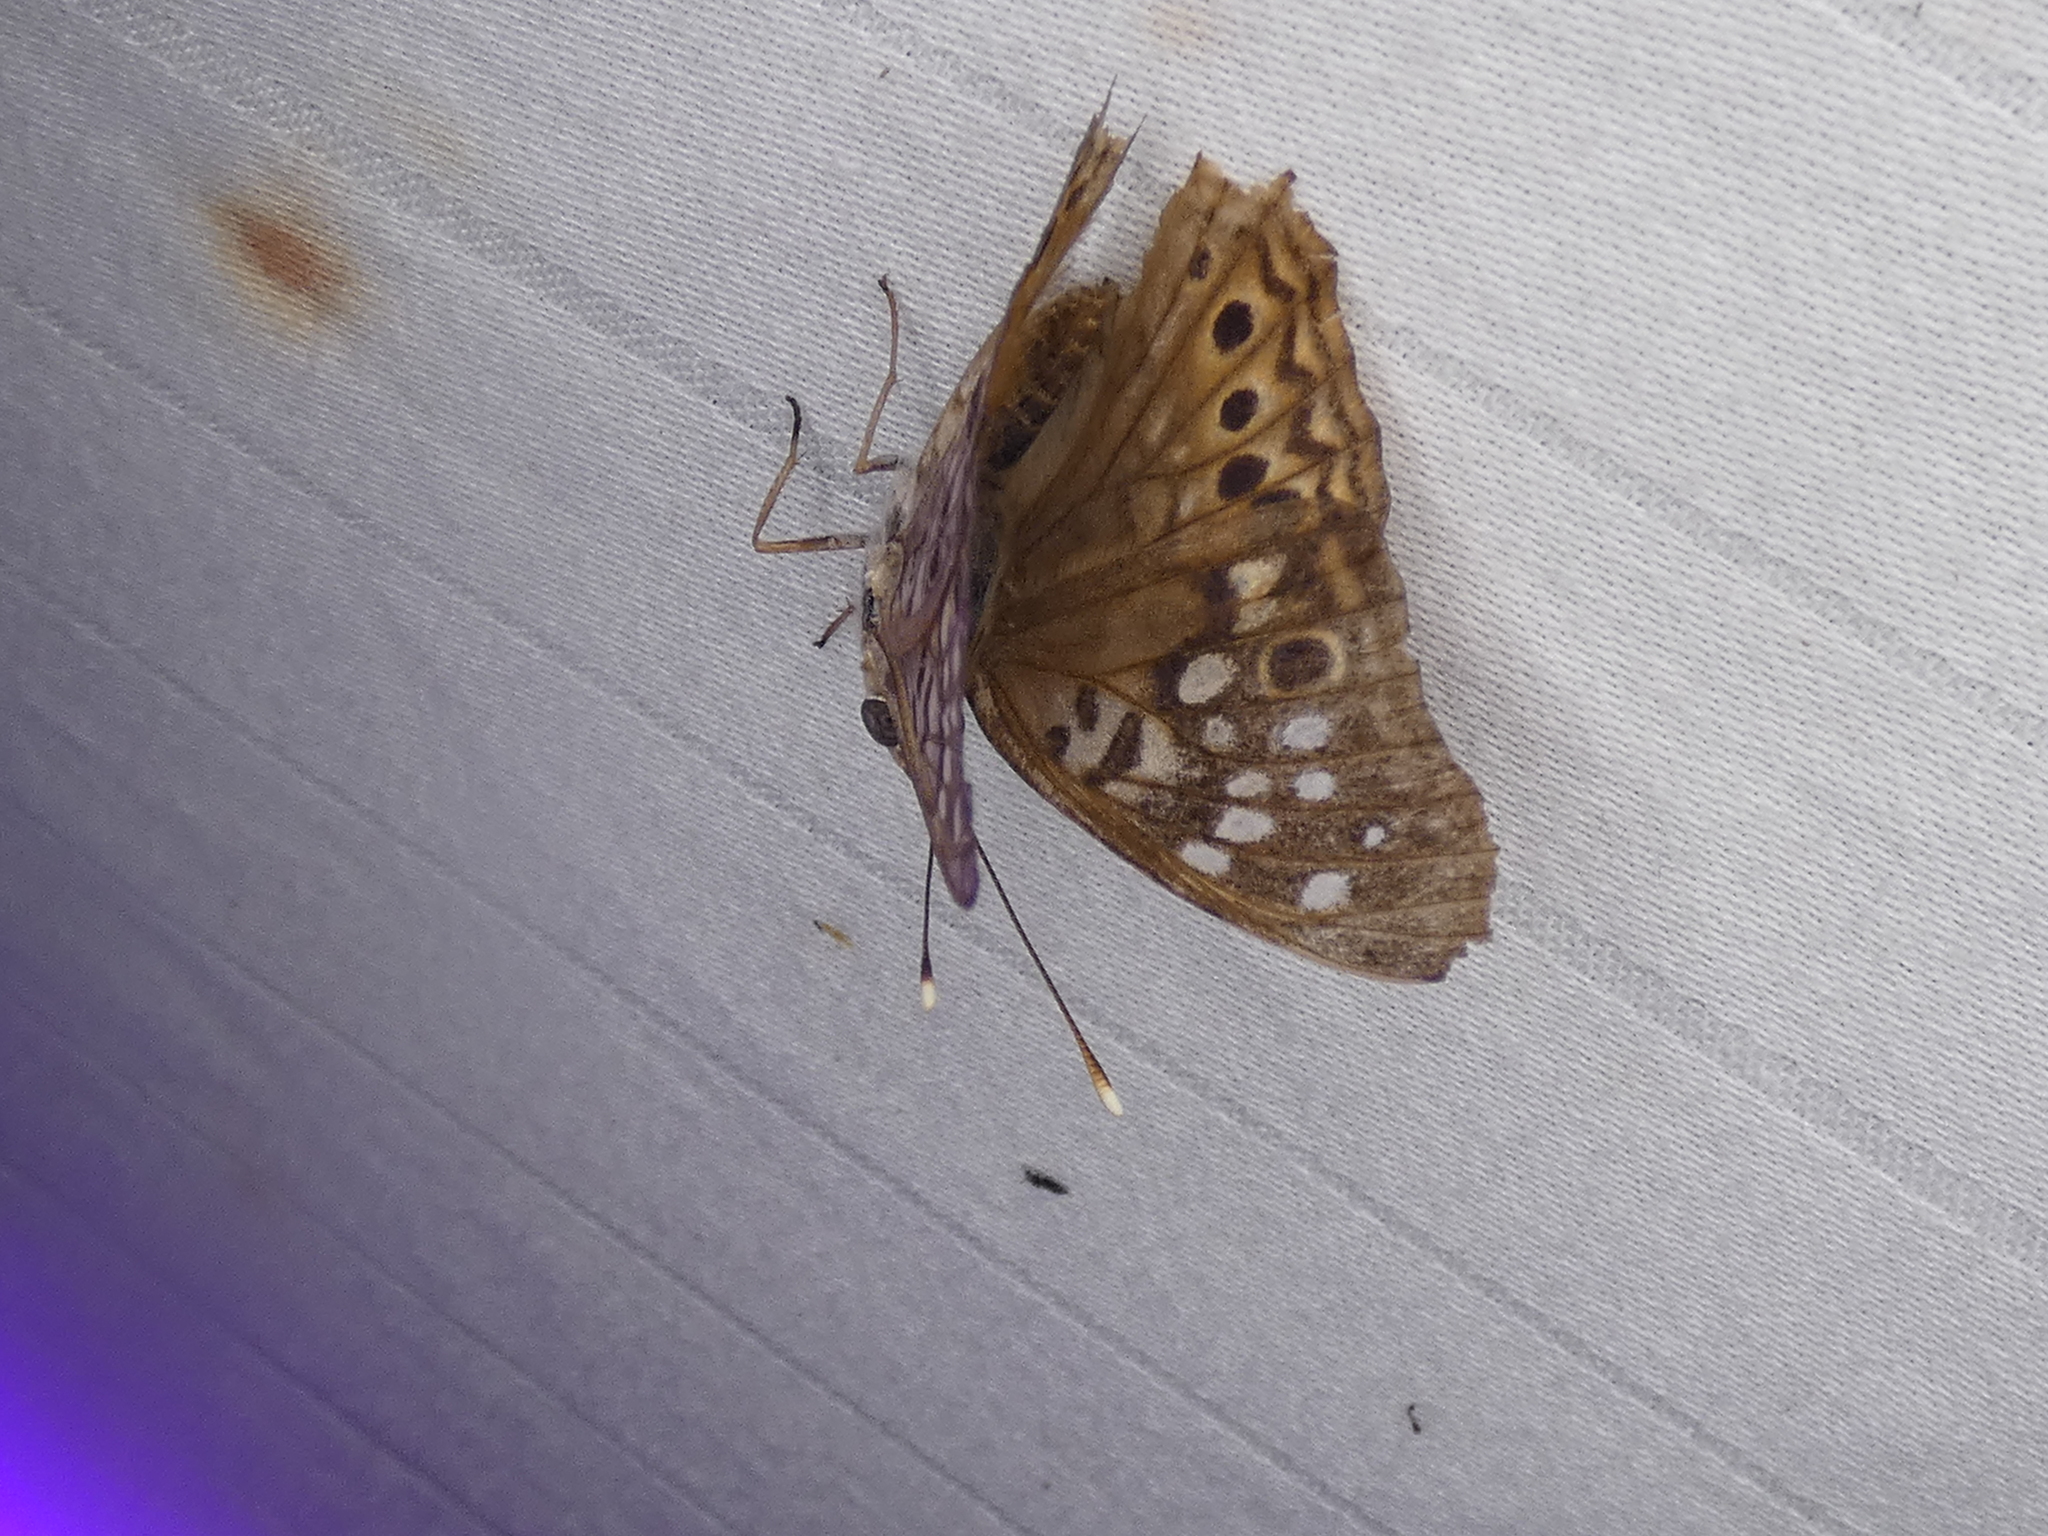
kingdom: Animalia
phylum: Arthropoda
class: Insecta
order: Lepidoptera
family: Nymphalidae
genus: Asterocampa
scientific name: Asterocampa celtis
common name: Hackberry emperor
